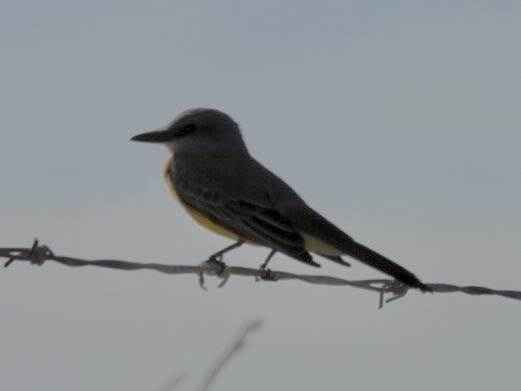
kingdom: Animalia
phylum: Chordata
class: Aves
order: Passeriformes
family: Tyrannidae
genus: Tyrannus
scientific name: Tyrannus
